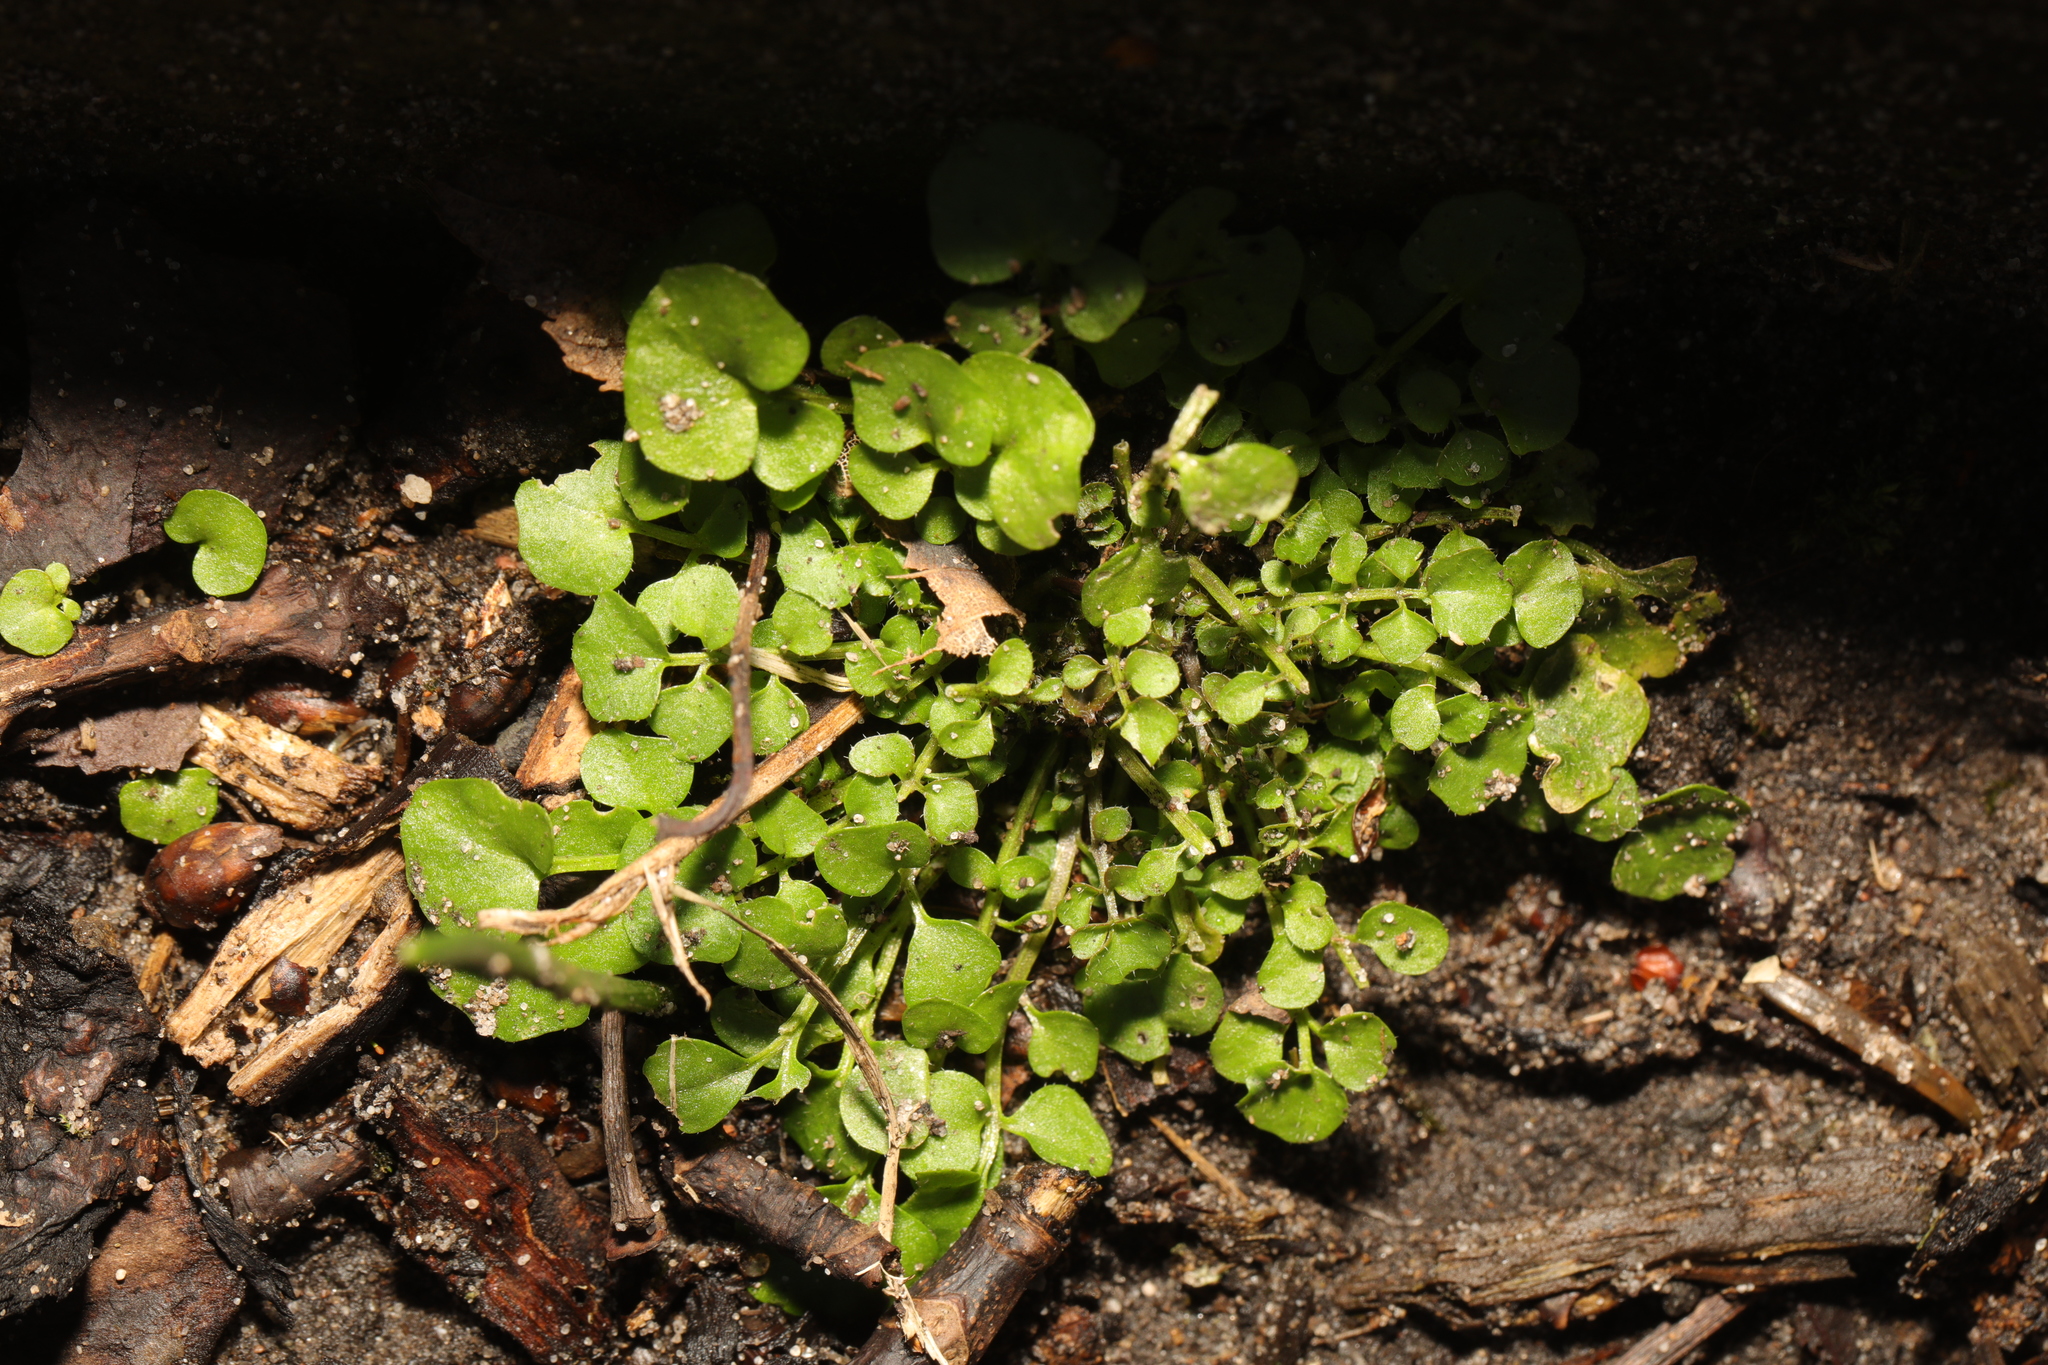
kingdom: Plantae
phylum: Tracheophyta
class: Magnoliopsida
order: Brassicales
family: Brassicaceae
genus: Cardamine
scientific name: Cardamine hirsuta
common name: Hairy bittercress
